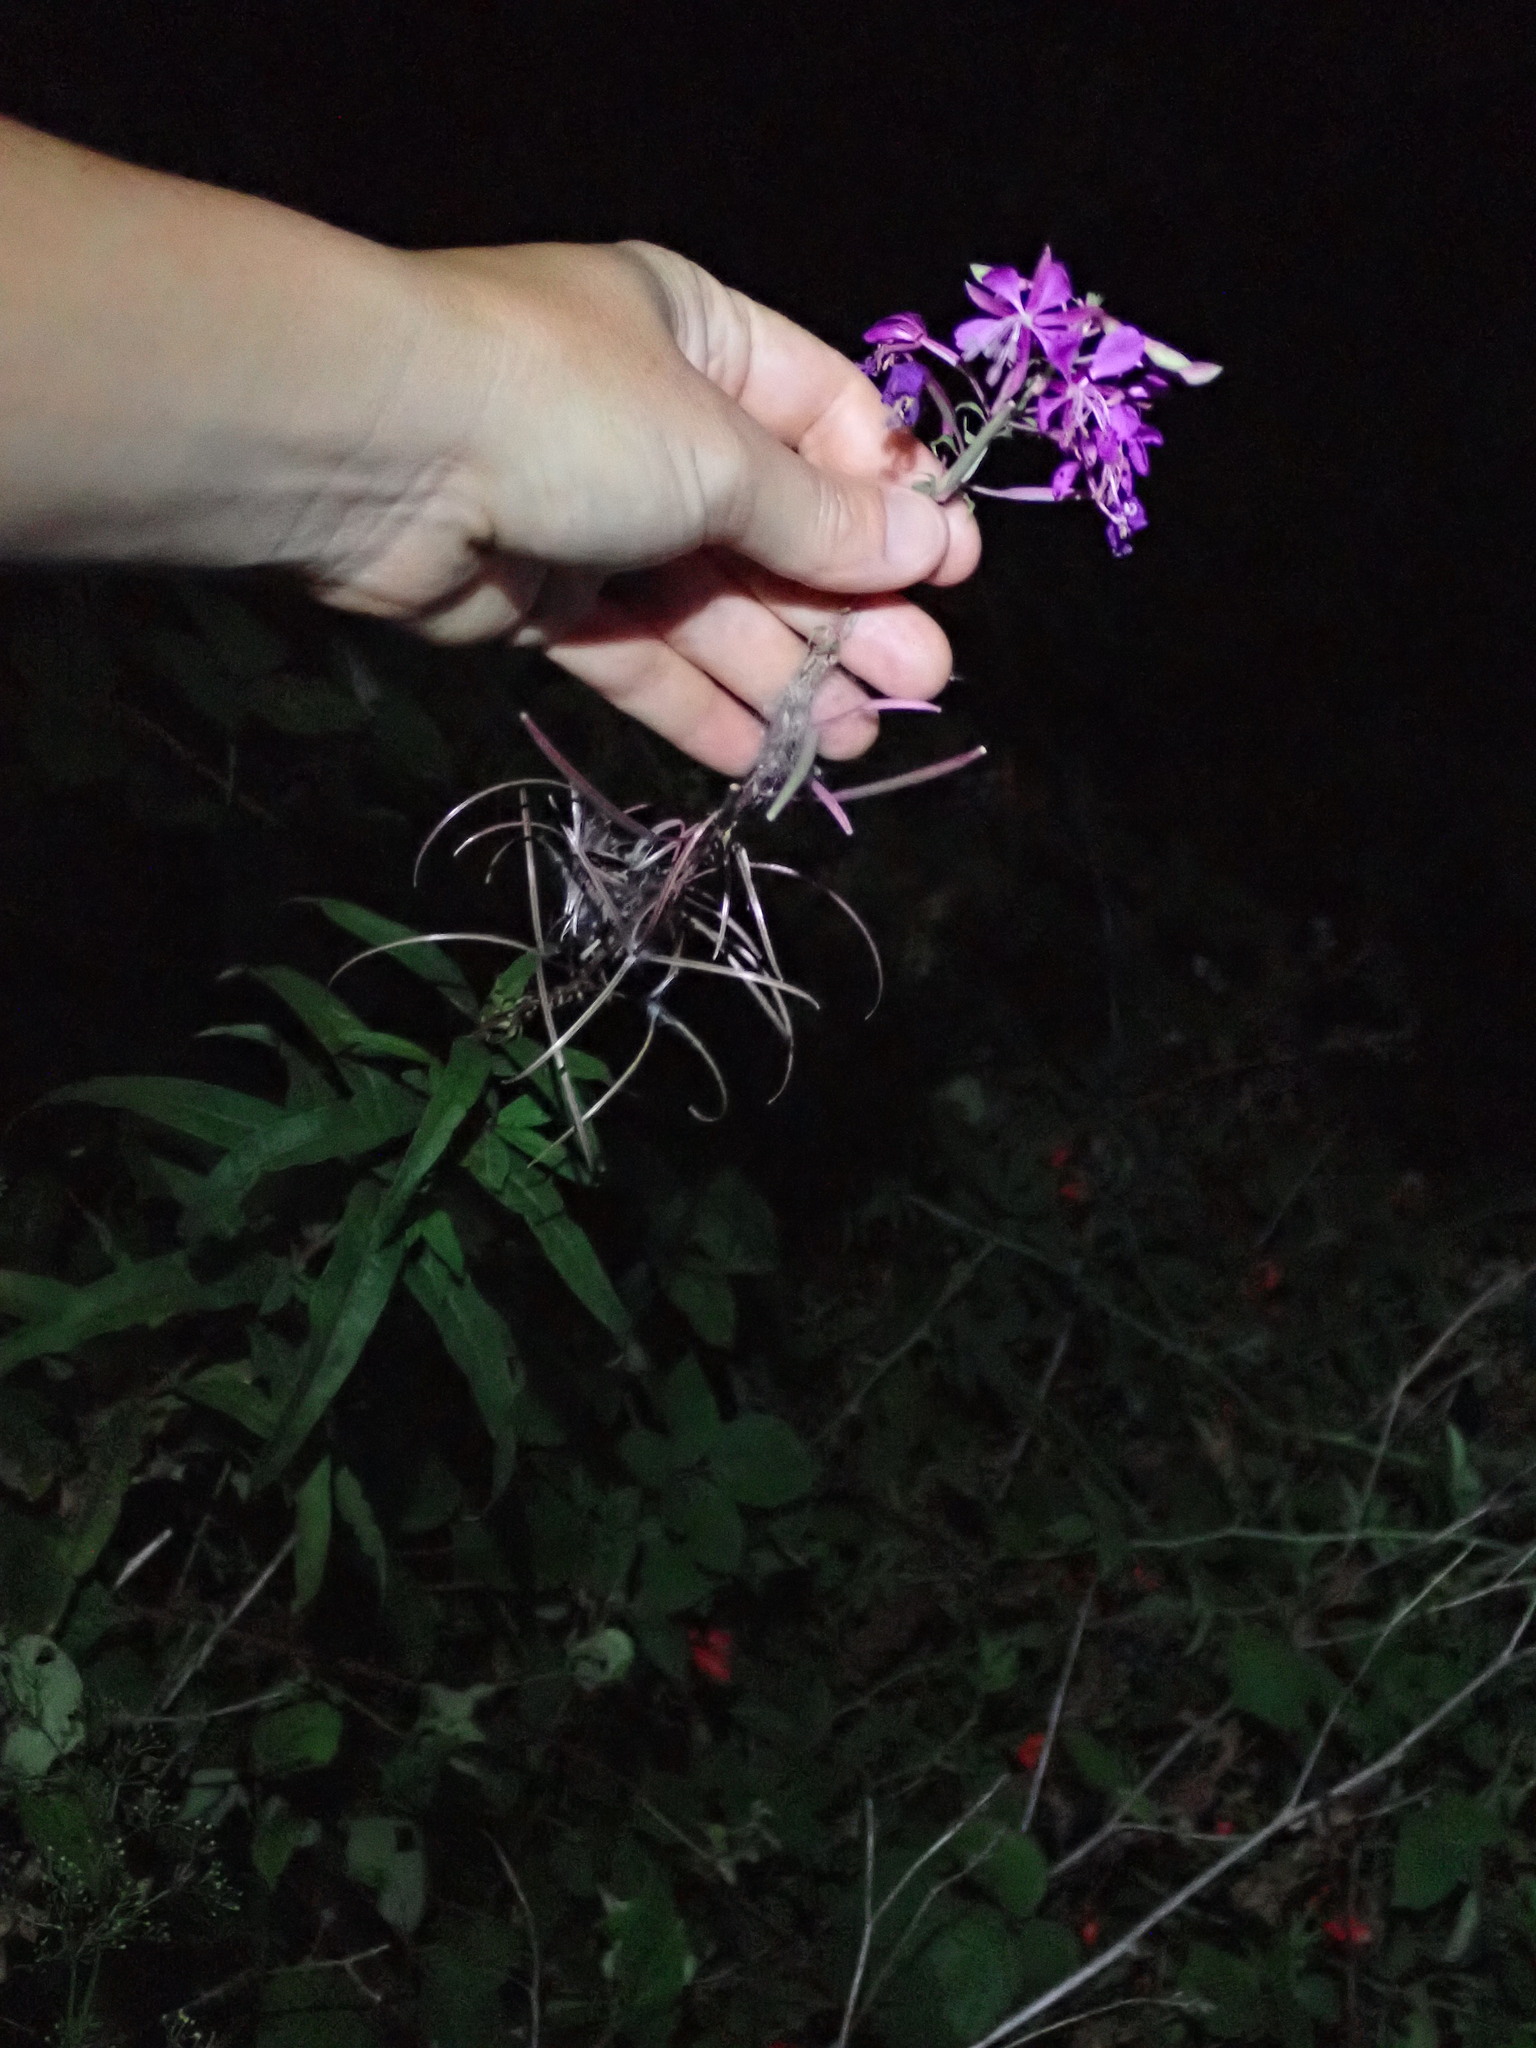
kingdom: Plantae
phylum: Tracheophyta
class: Magnoliopsida
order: Myrtales
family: Onagraceae
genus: Chamaenerion
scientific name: Chamaenerion angustifolium
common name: Fireweed
